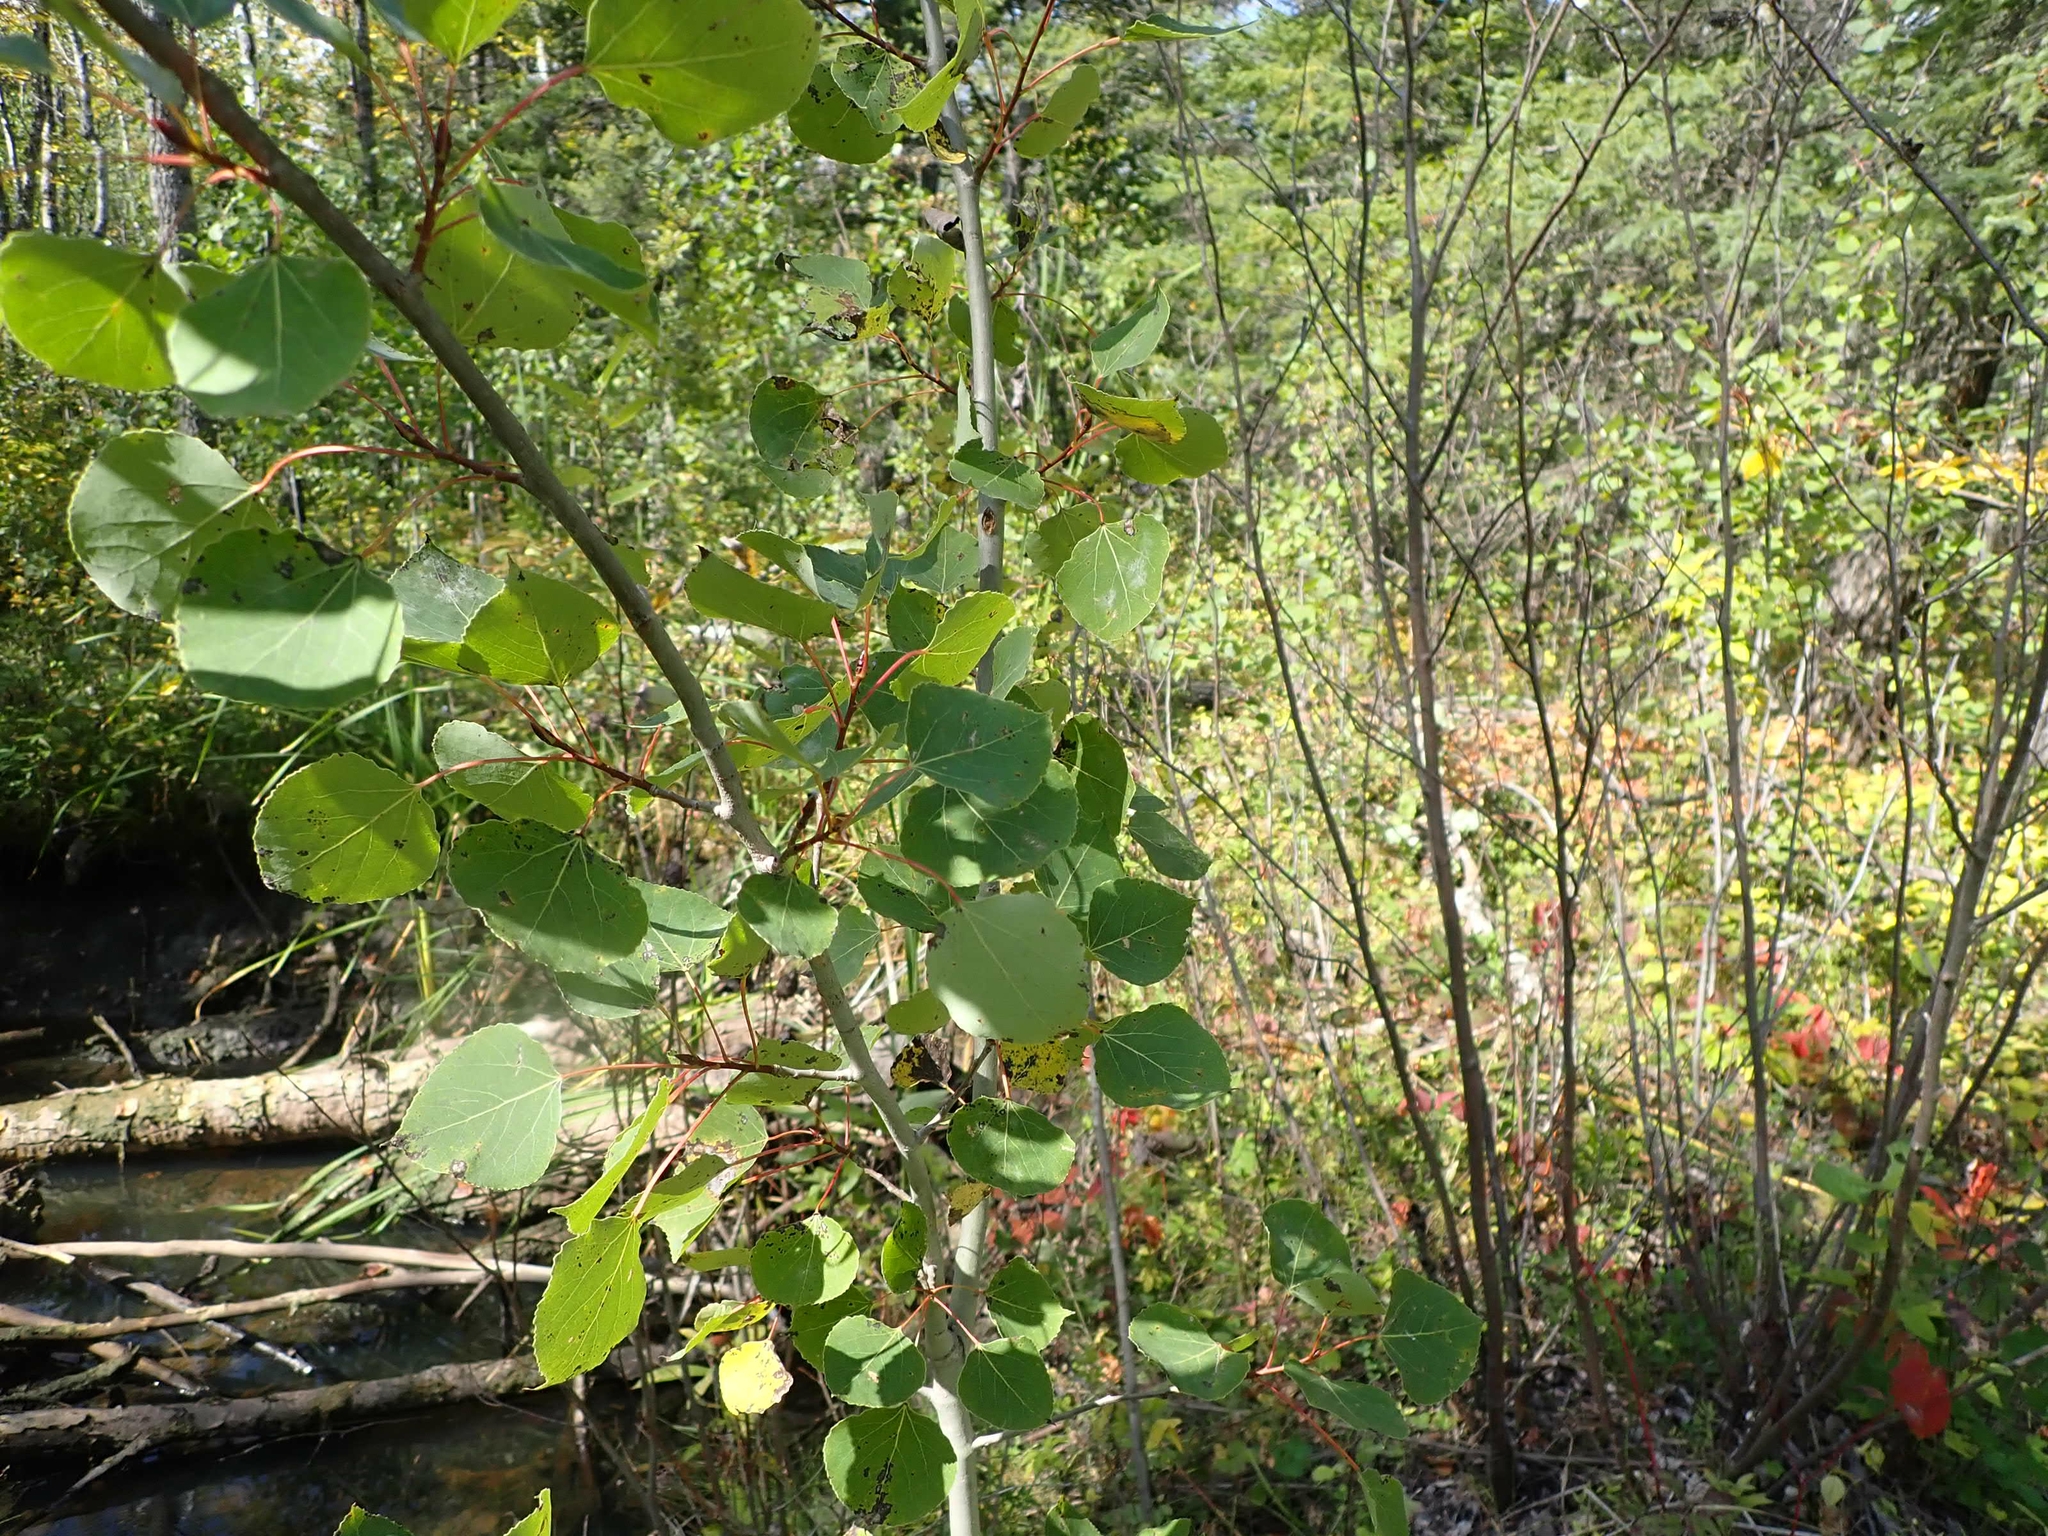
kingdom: Plantae
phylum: Tracheophyta
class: Magnoliopsida
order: Malpighiales
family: Salicaceae
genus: Populus
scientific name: Populus tremuloides
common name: Quaking aspen
